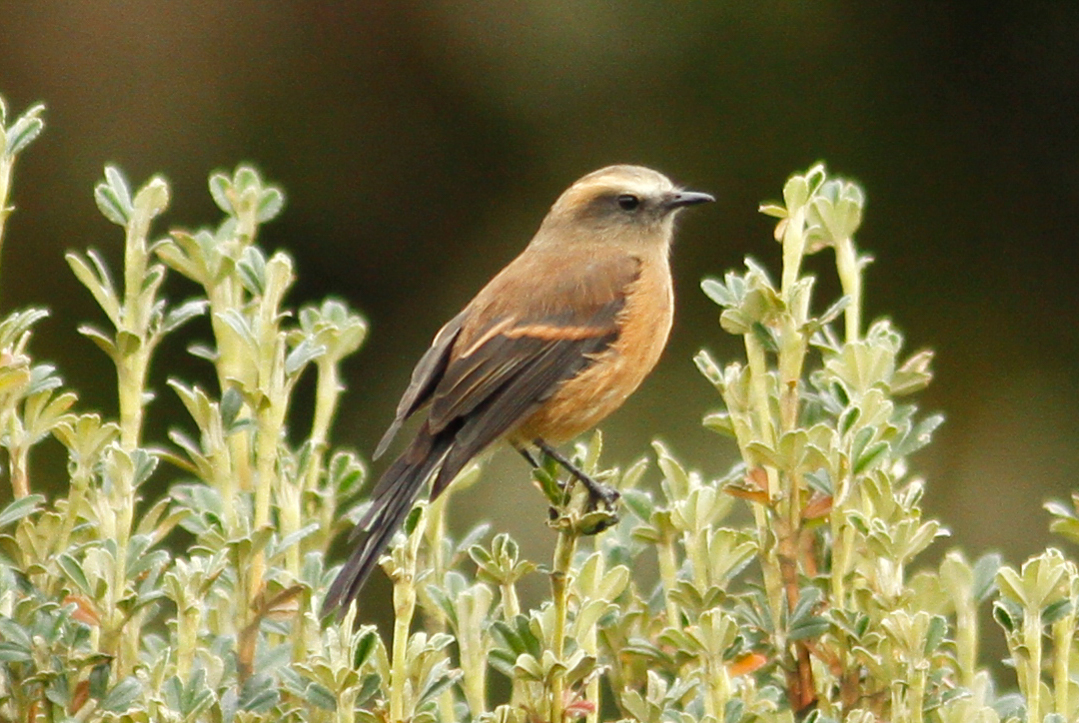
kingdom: Animalia
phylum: Chordata
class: Aves
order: Passeriformes
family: Tyrannidae
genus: Ochthoeca
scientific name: Ochthoeca fumicolor
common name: Brown-backed chat-tyrant
